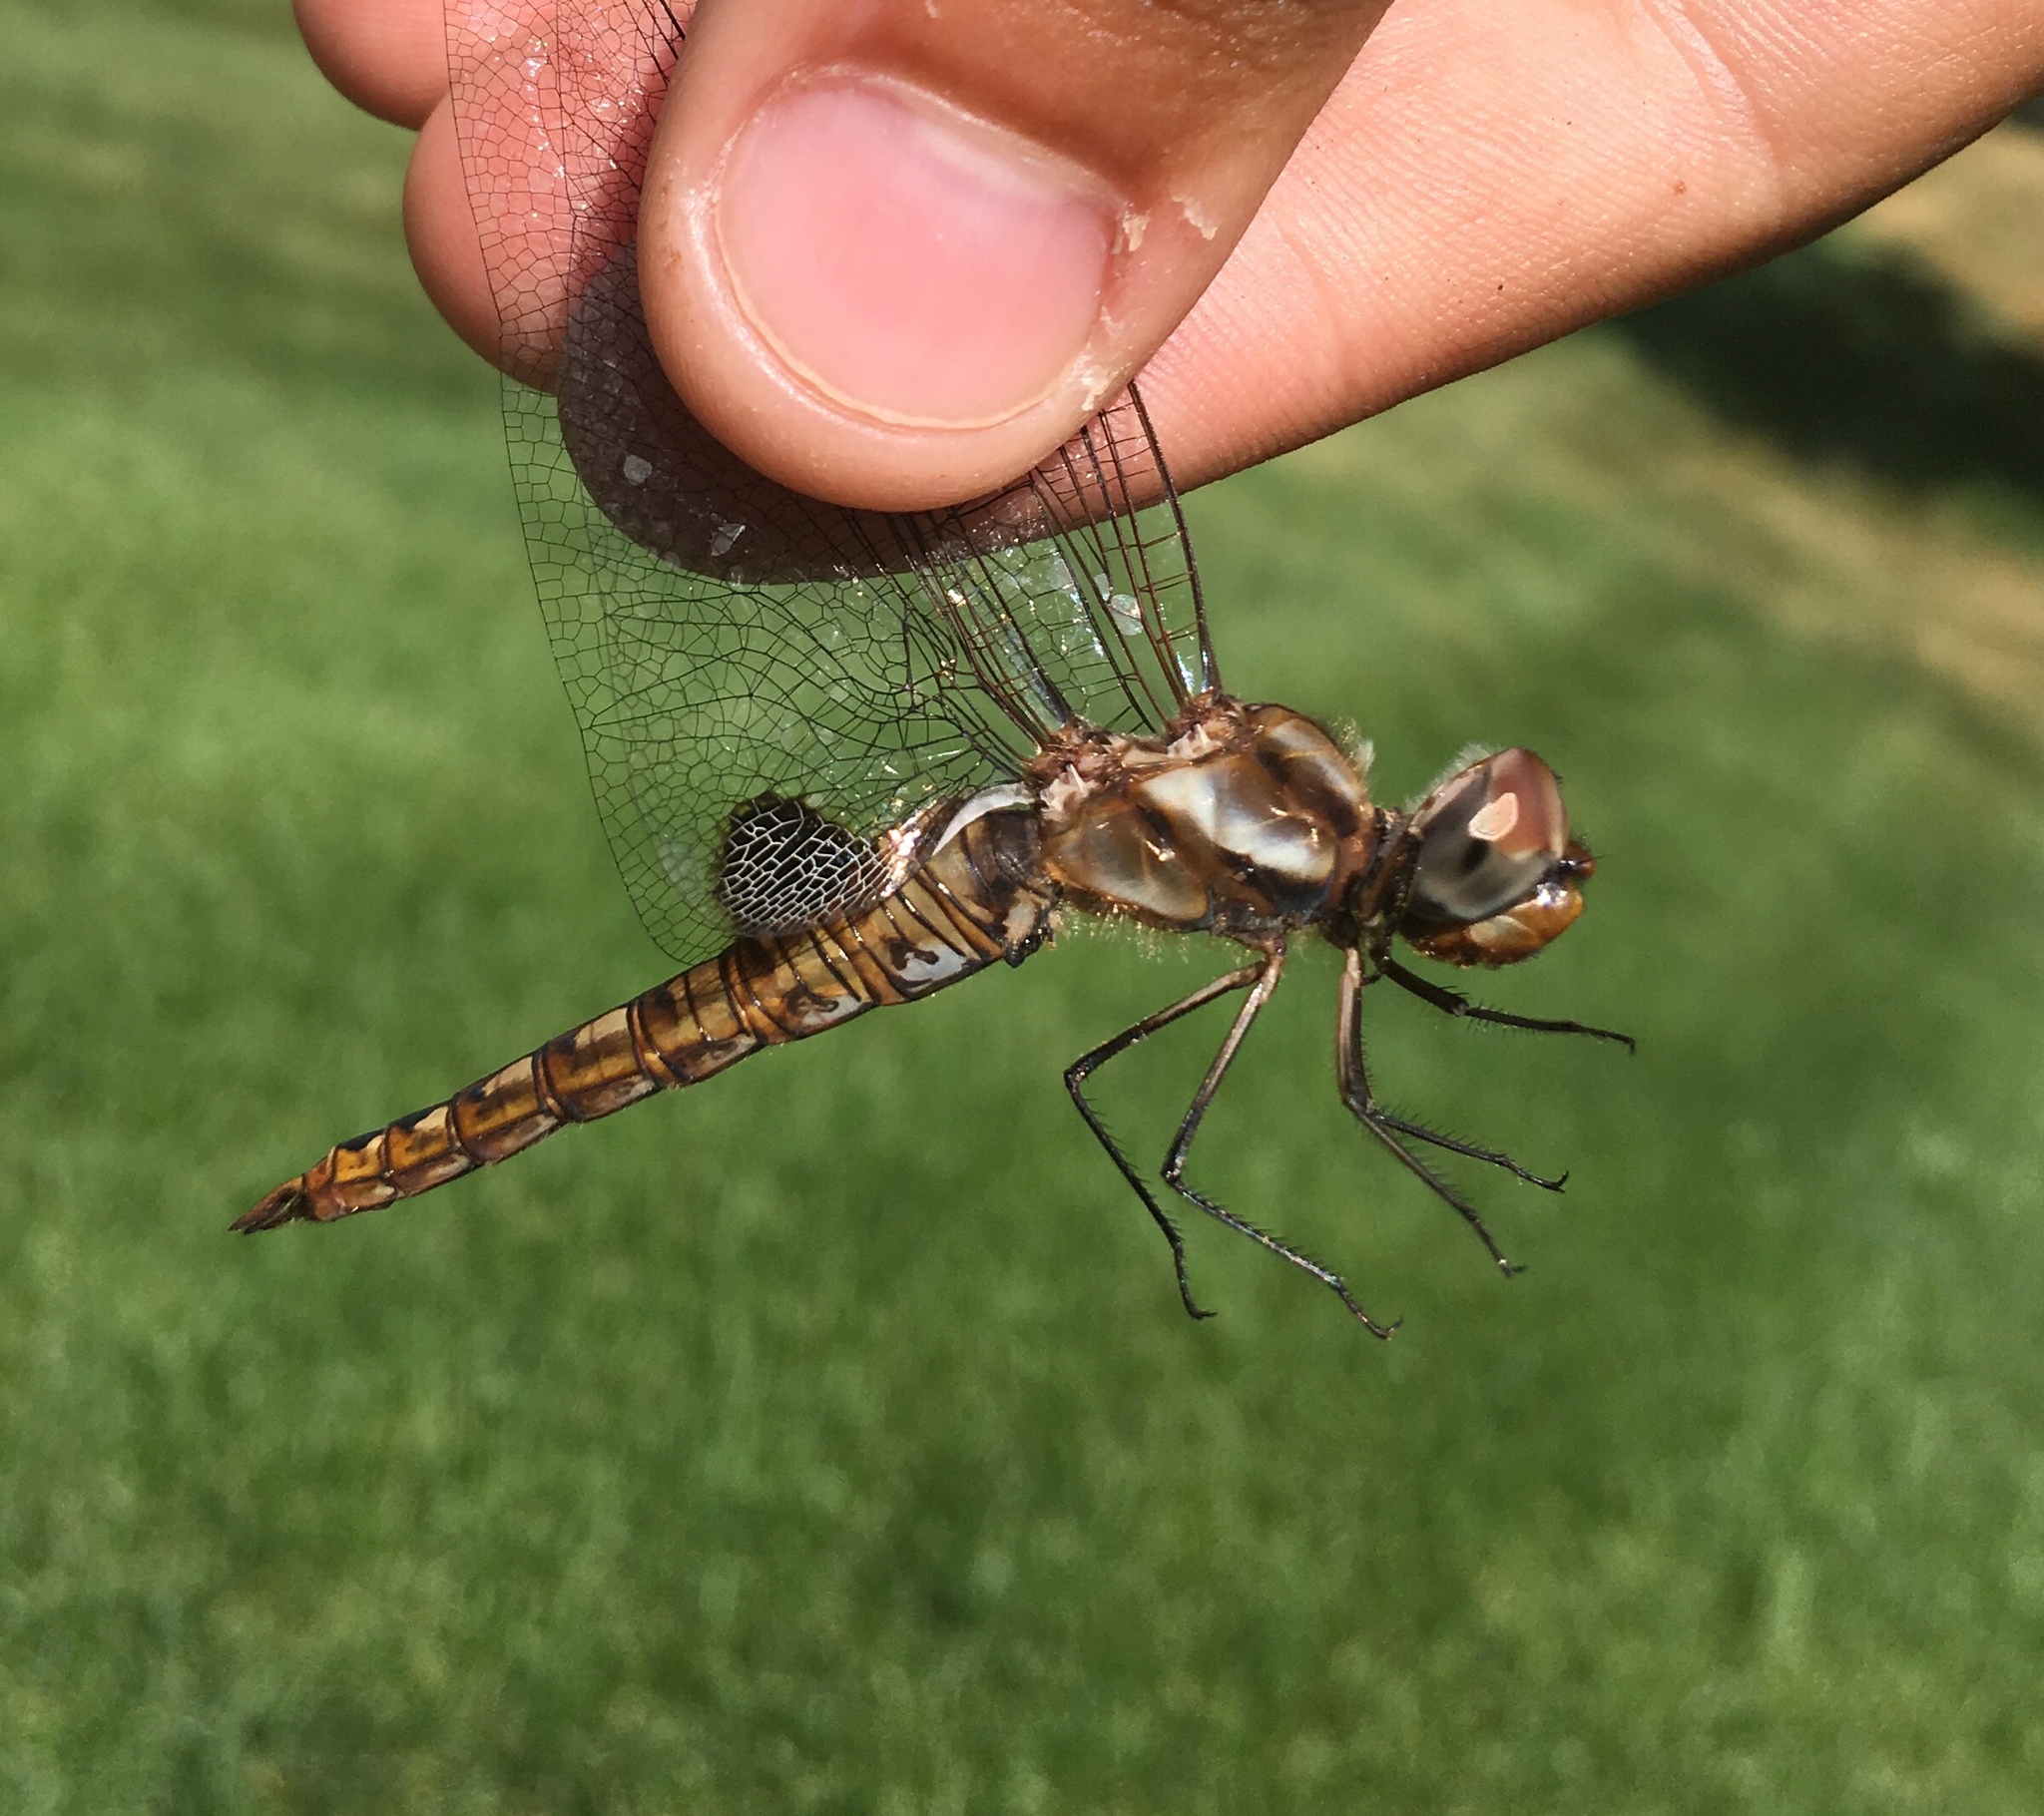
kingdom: Animalia
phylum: Arthropoda
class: Insecta
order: Odonata
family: Libellulidae
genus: Pantala
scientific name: Pantala hymenaea
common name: Spot-winged glider
